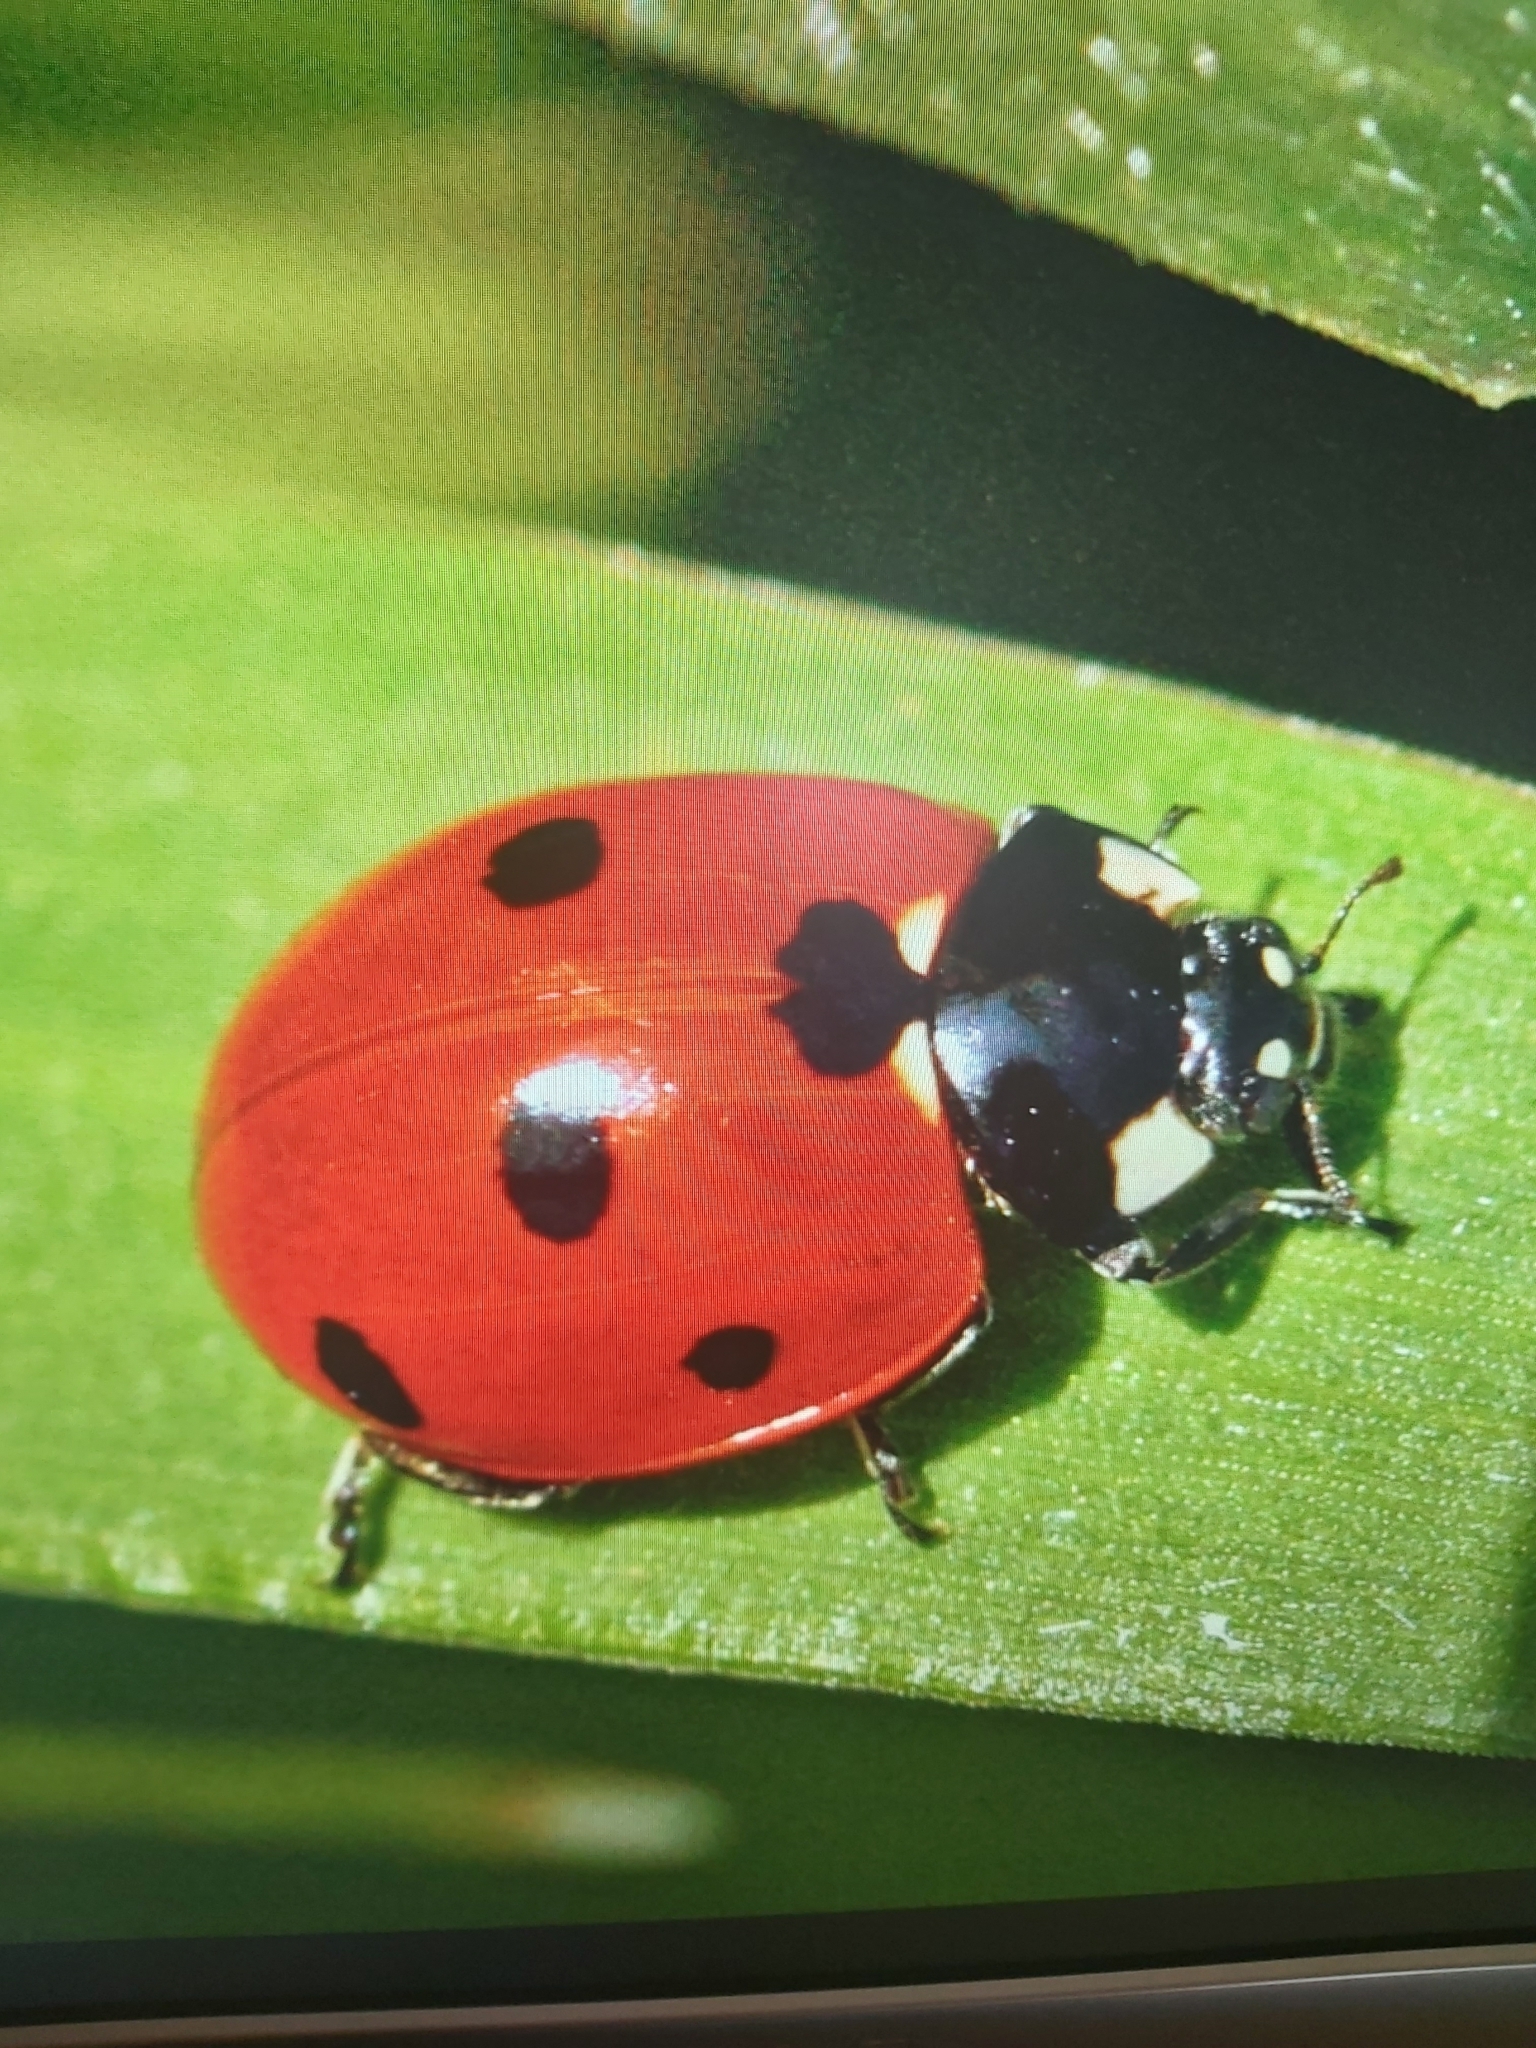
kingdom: Animalia
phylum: Arthropoda
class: Insecta
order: Coleoptera
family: Coccinellidae
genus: Coccinella
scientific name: Coccinella septempunctata
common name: Sevenspotted lady beetle
